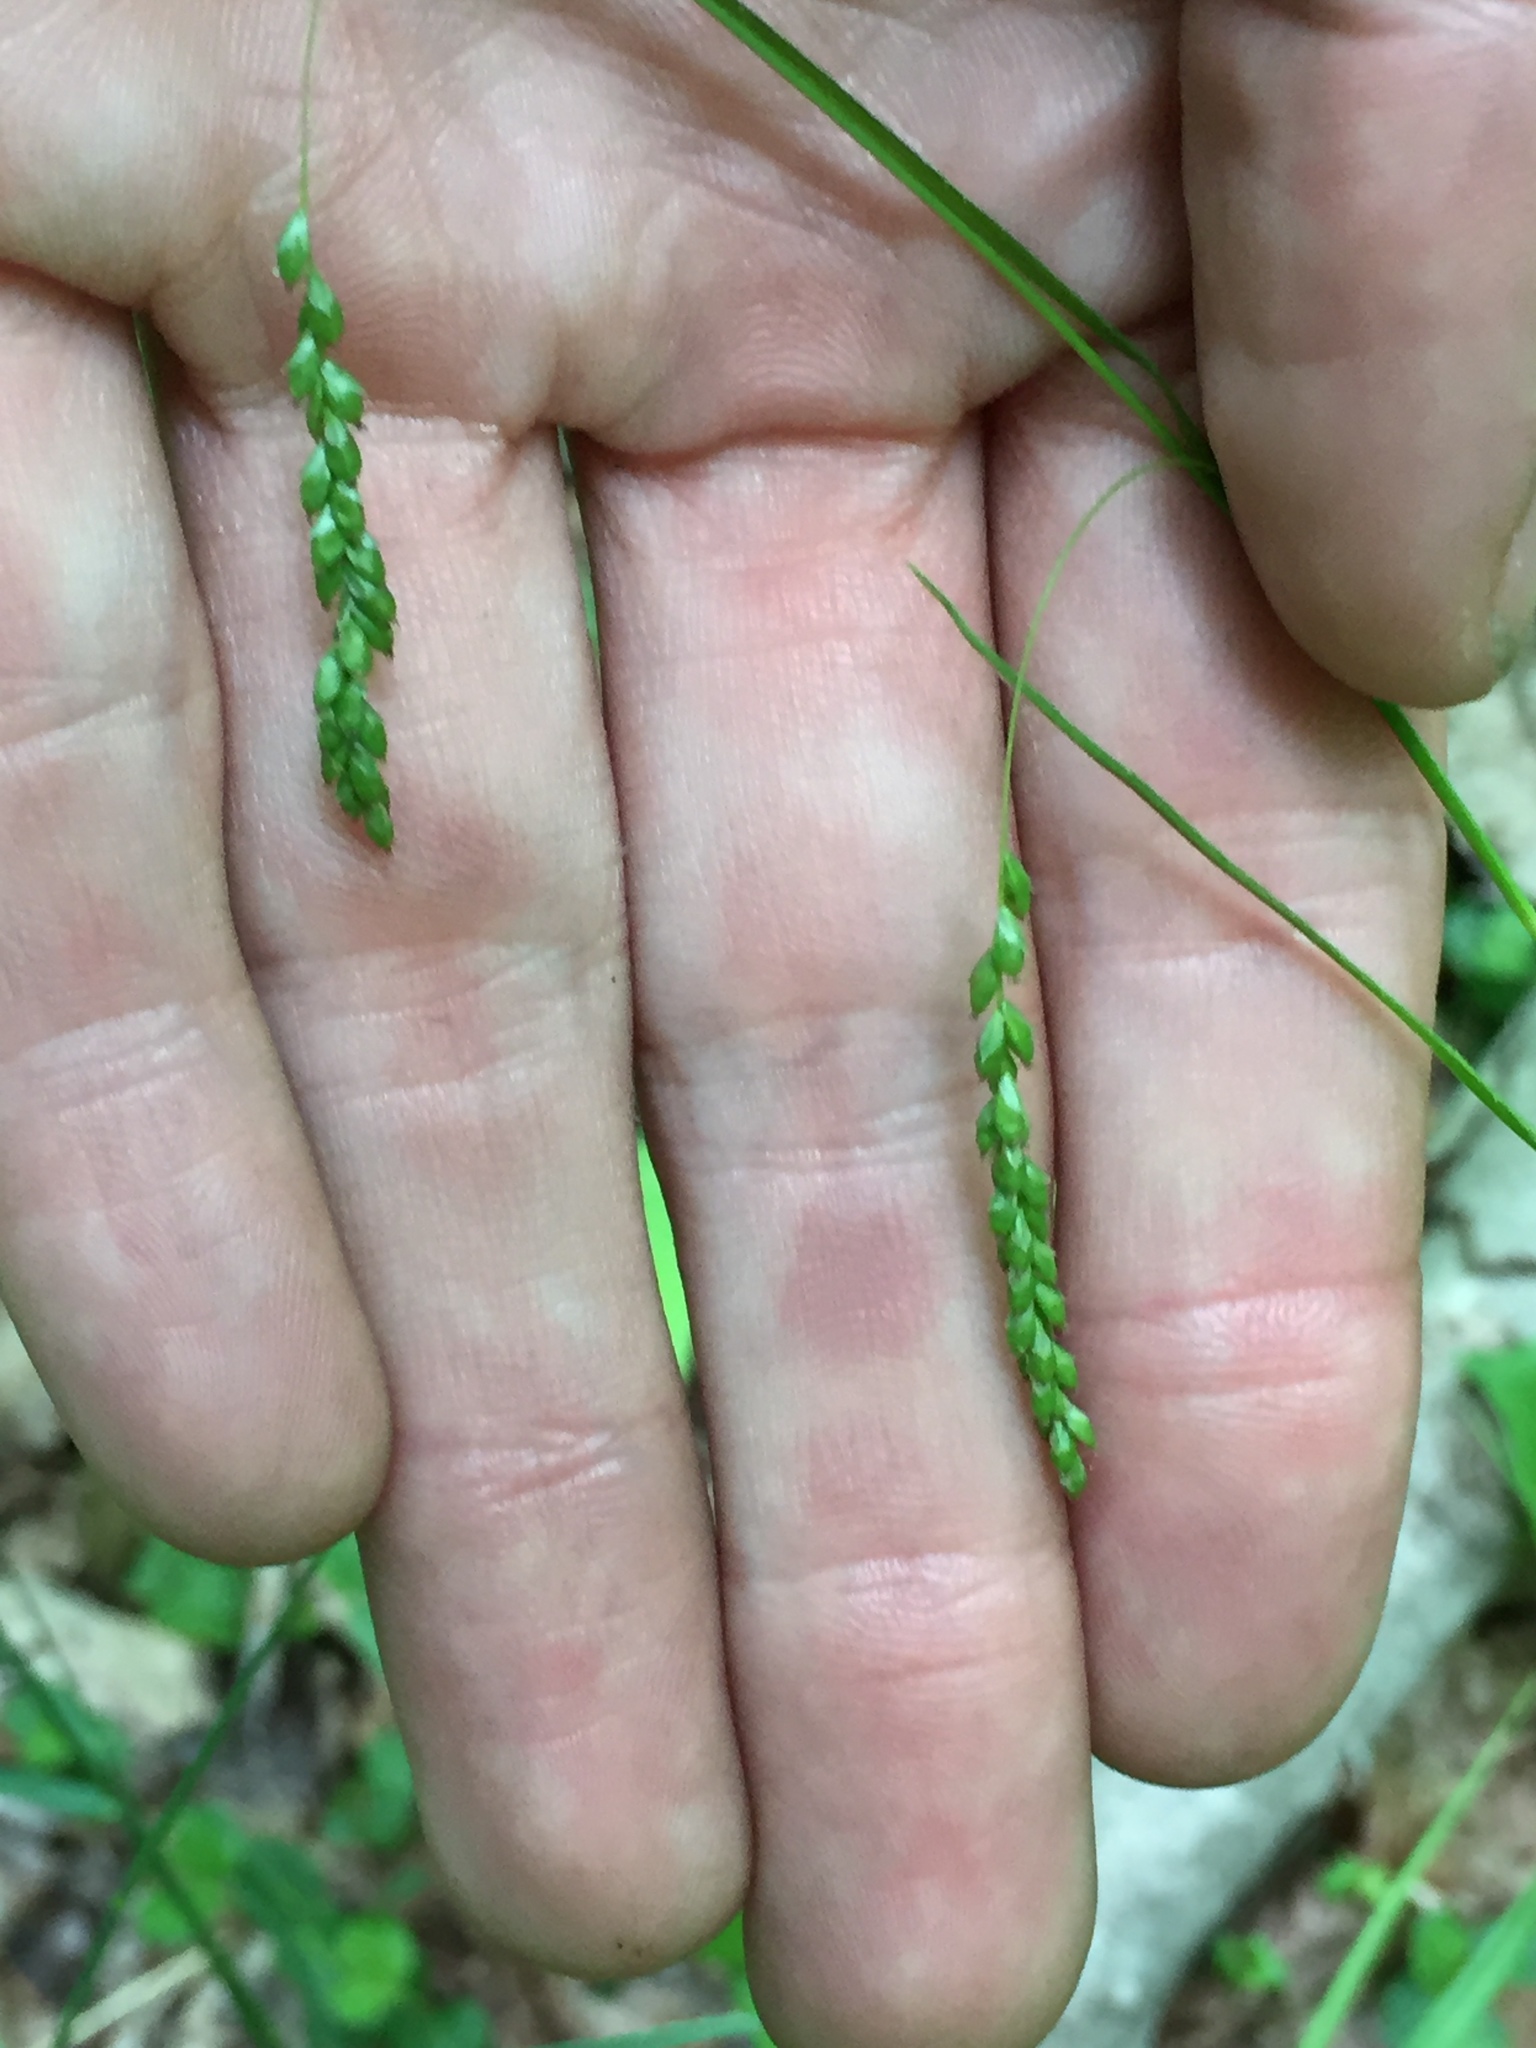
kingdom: Plantae
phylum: Tracheophyta
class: Liliopsida
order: Poales
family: Cyperaceae
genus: Carex
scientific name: Carex gracillima
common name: Graceful sedge
